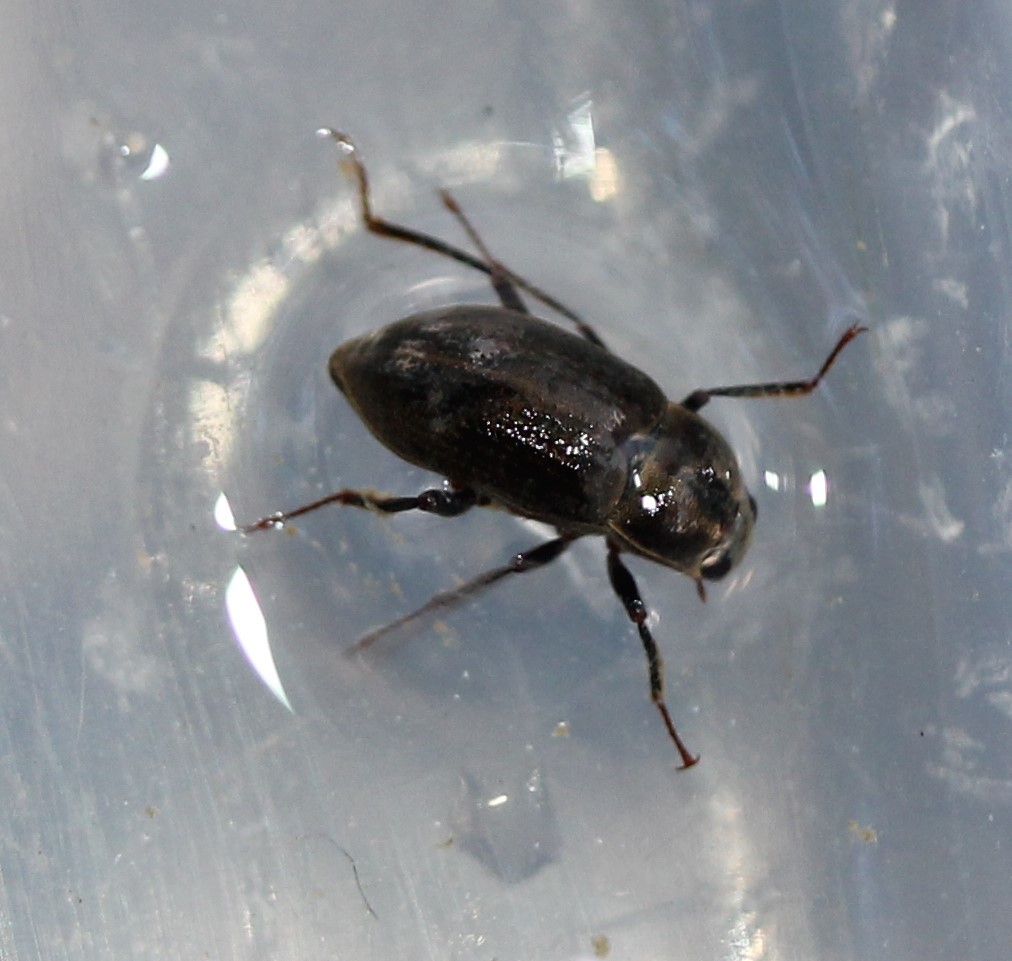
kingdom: Animalia
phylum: Arthropoda
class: Insecta
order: Coleoptera
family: Dryopidae
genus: Helichus
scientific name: Helichus
